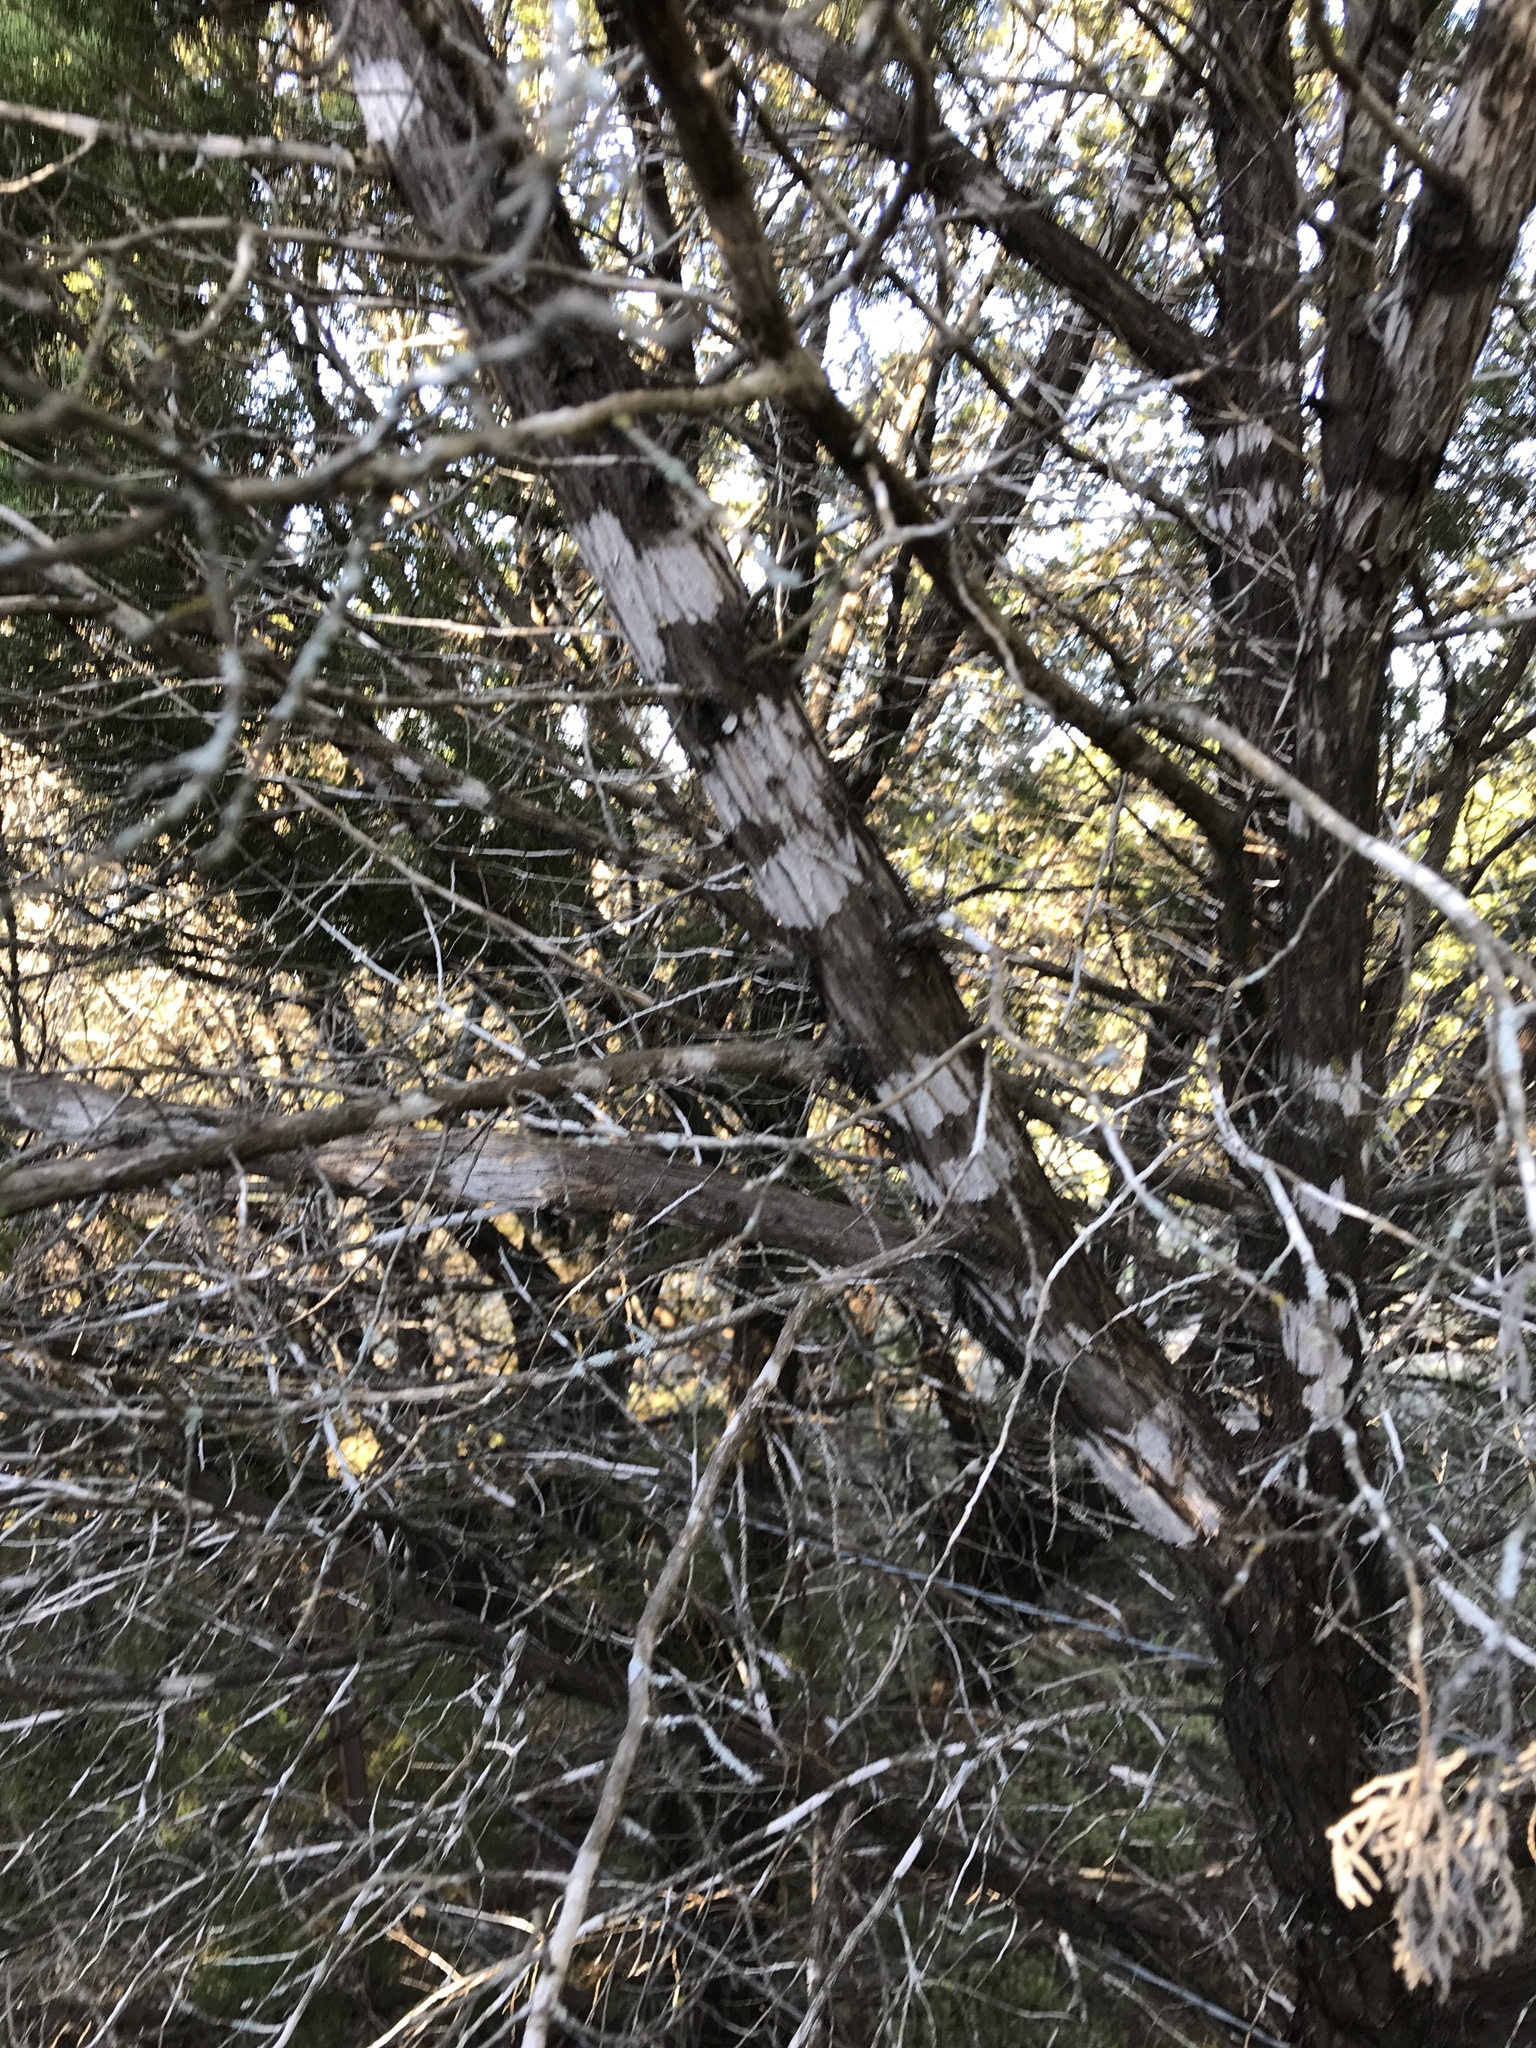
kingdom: Fungi
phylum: Ascomycota
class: Lecanoromycetes
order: Ostropales
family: Stictidaceae
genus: Robergea
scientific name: Robergea
